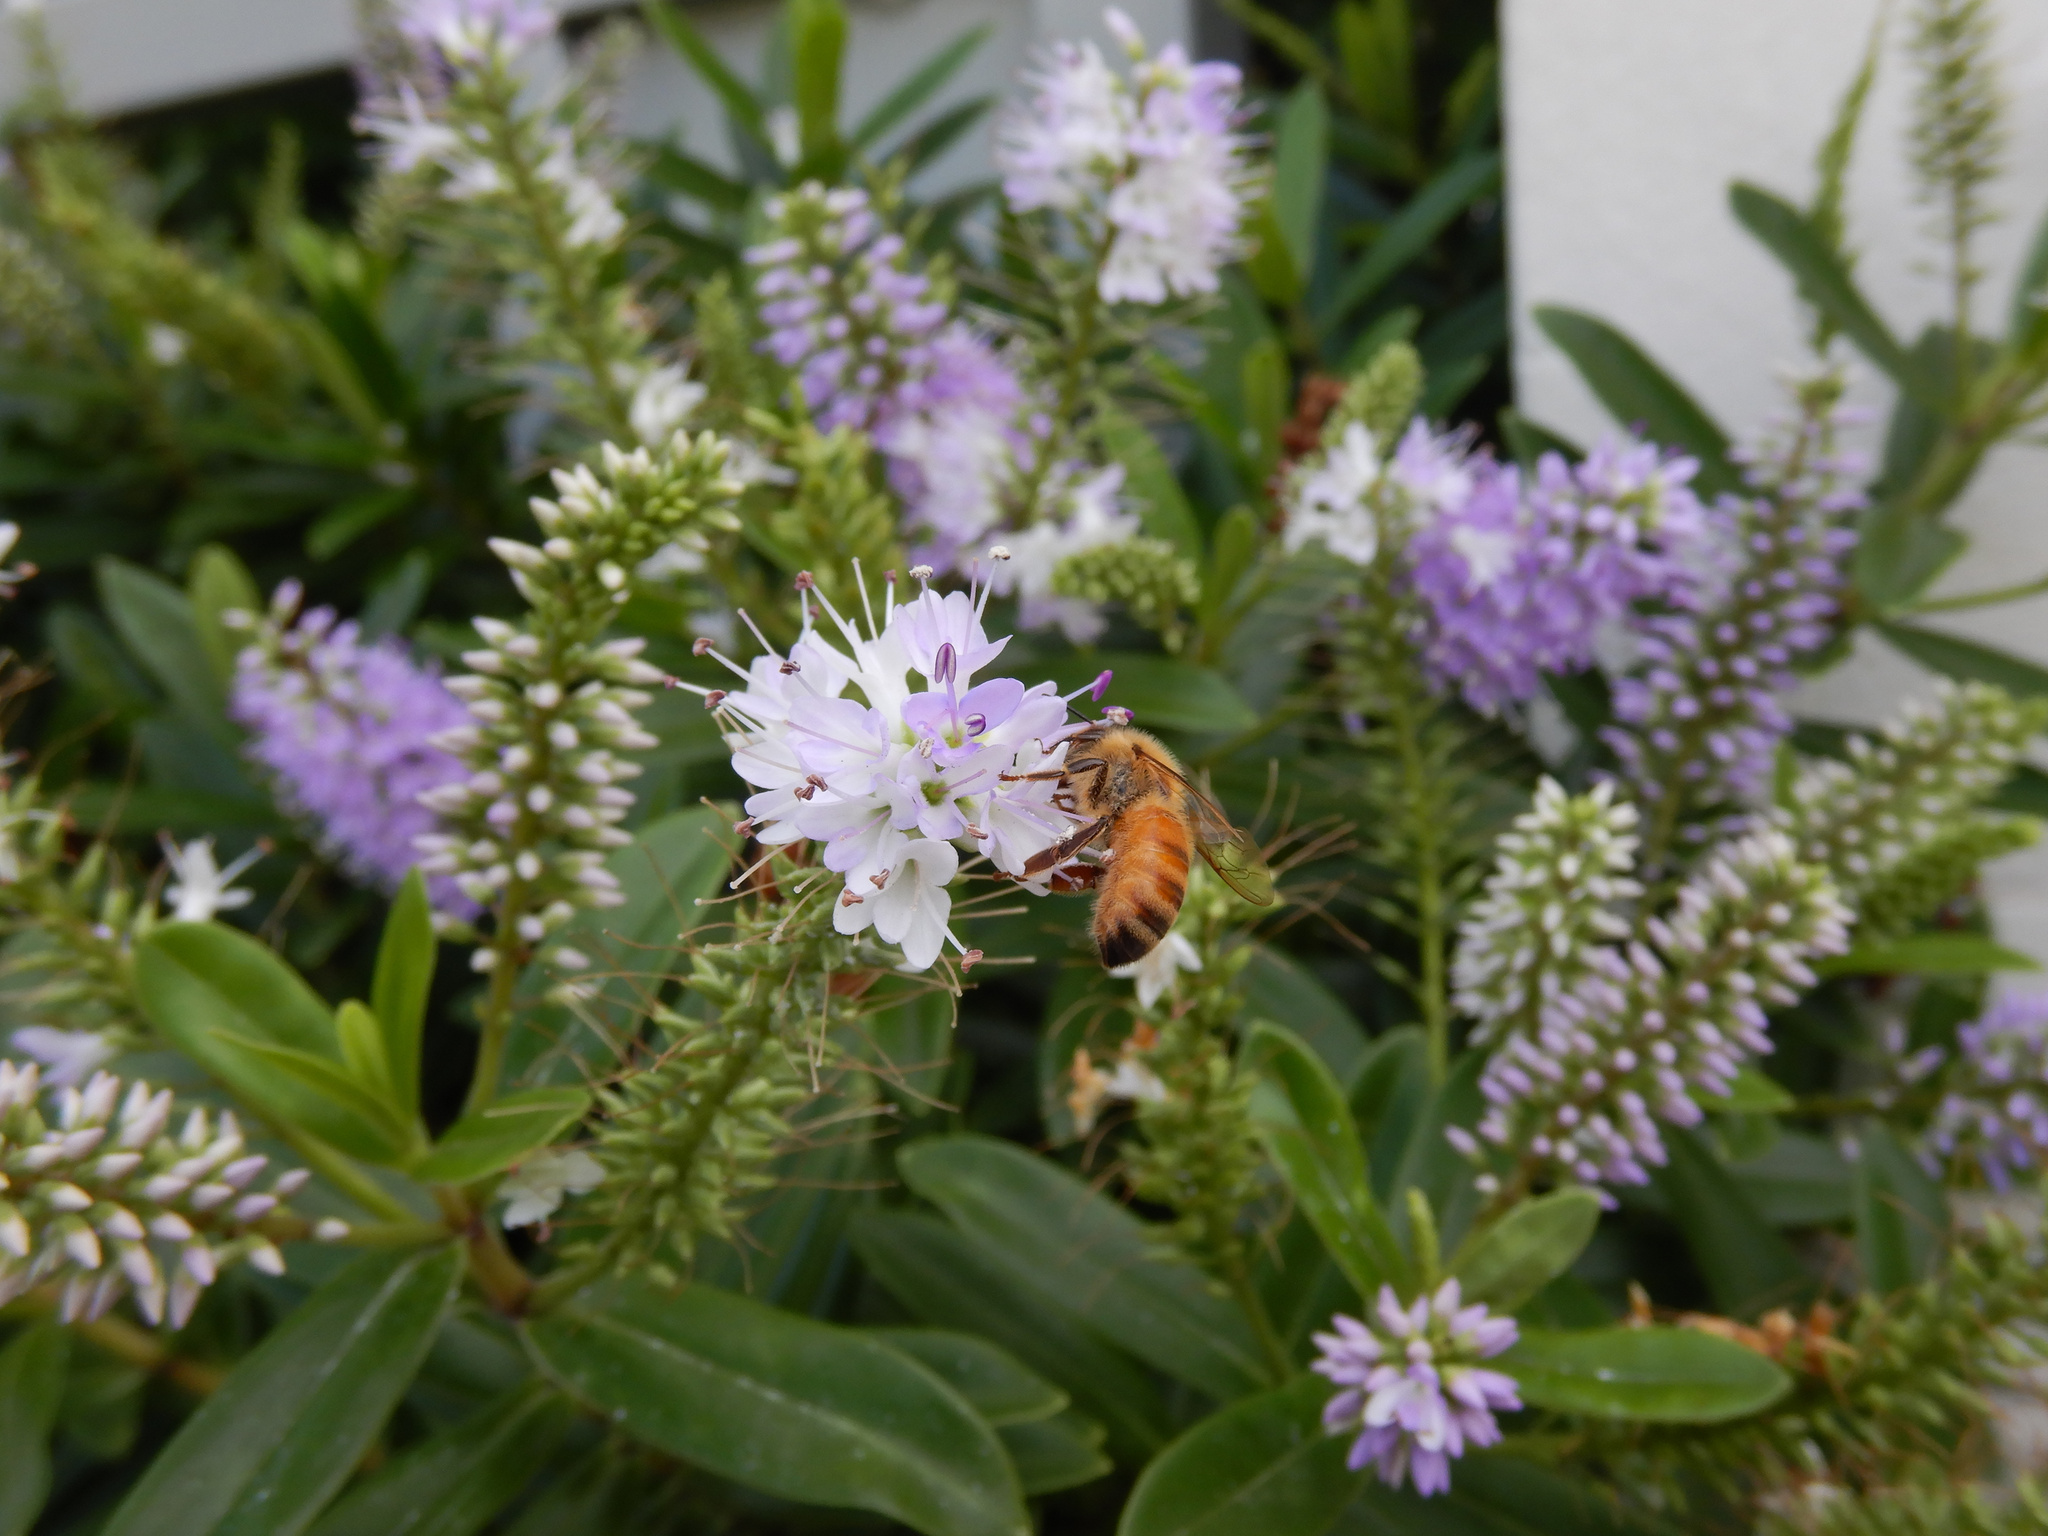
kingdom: Animalia
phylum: Arthropoda
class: Insecta
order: Hymenoptera
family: Apidae
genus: Apis
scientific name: Apis mellifera
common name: Honey bee
